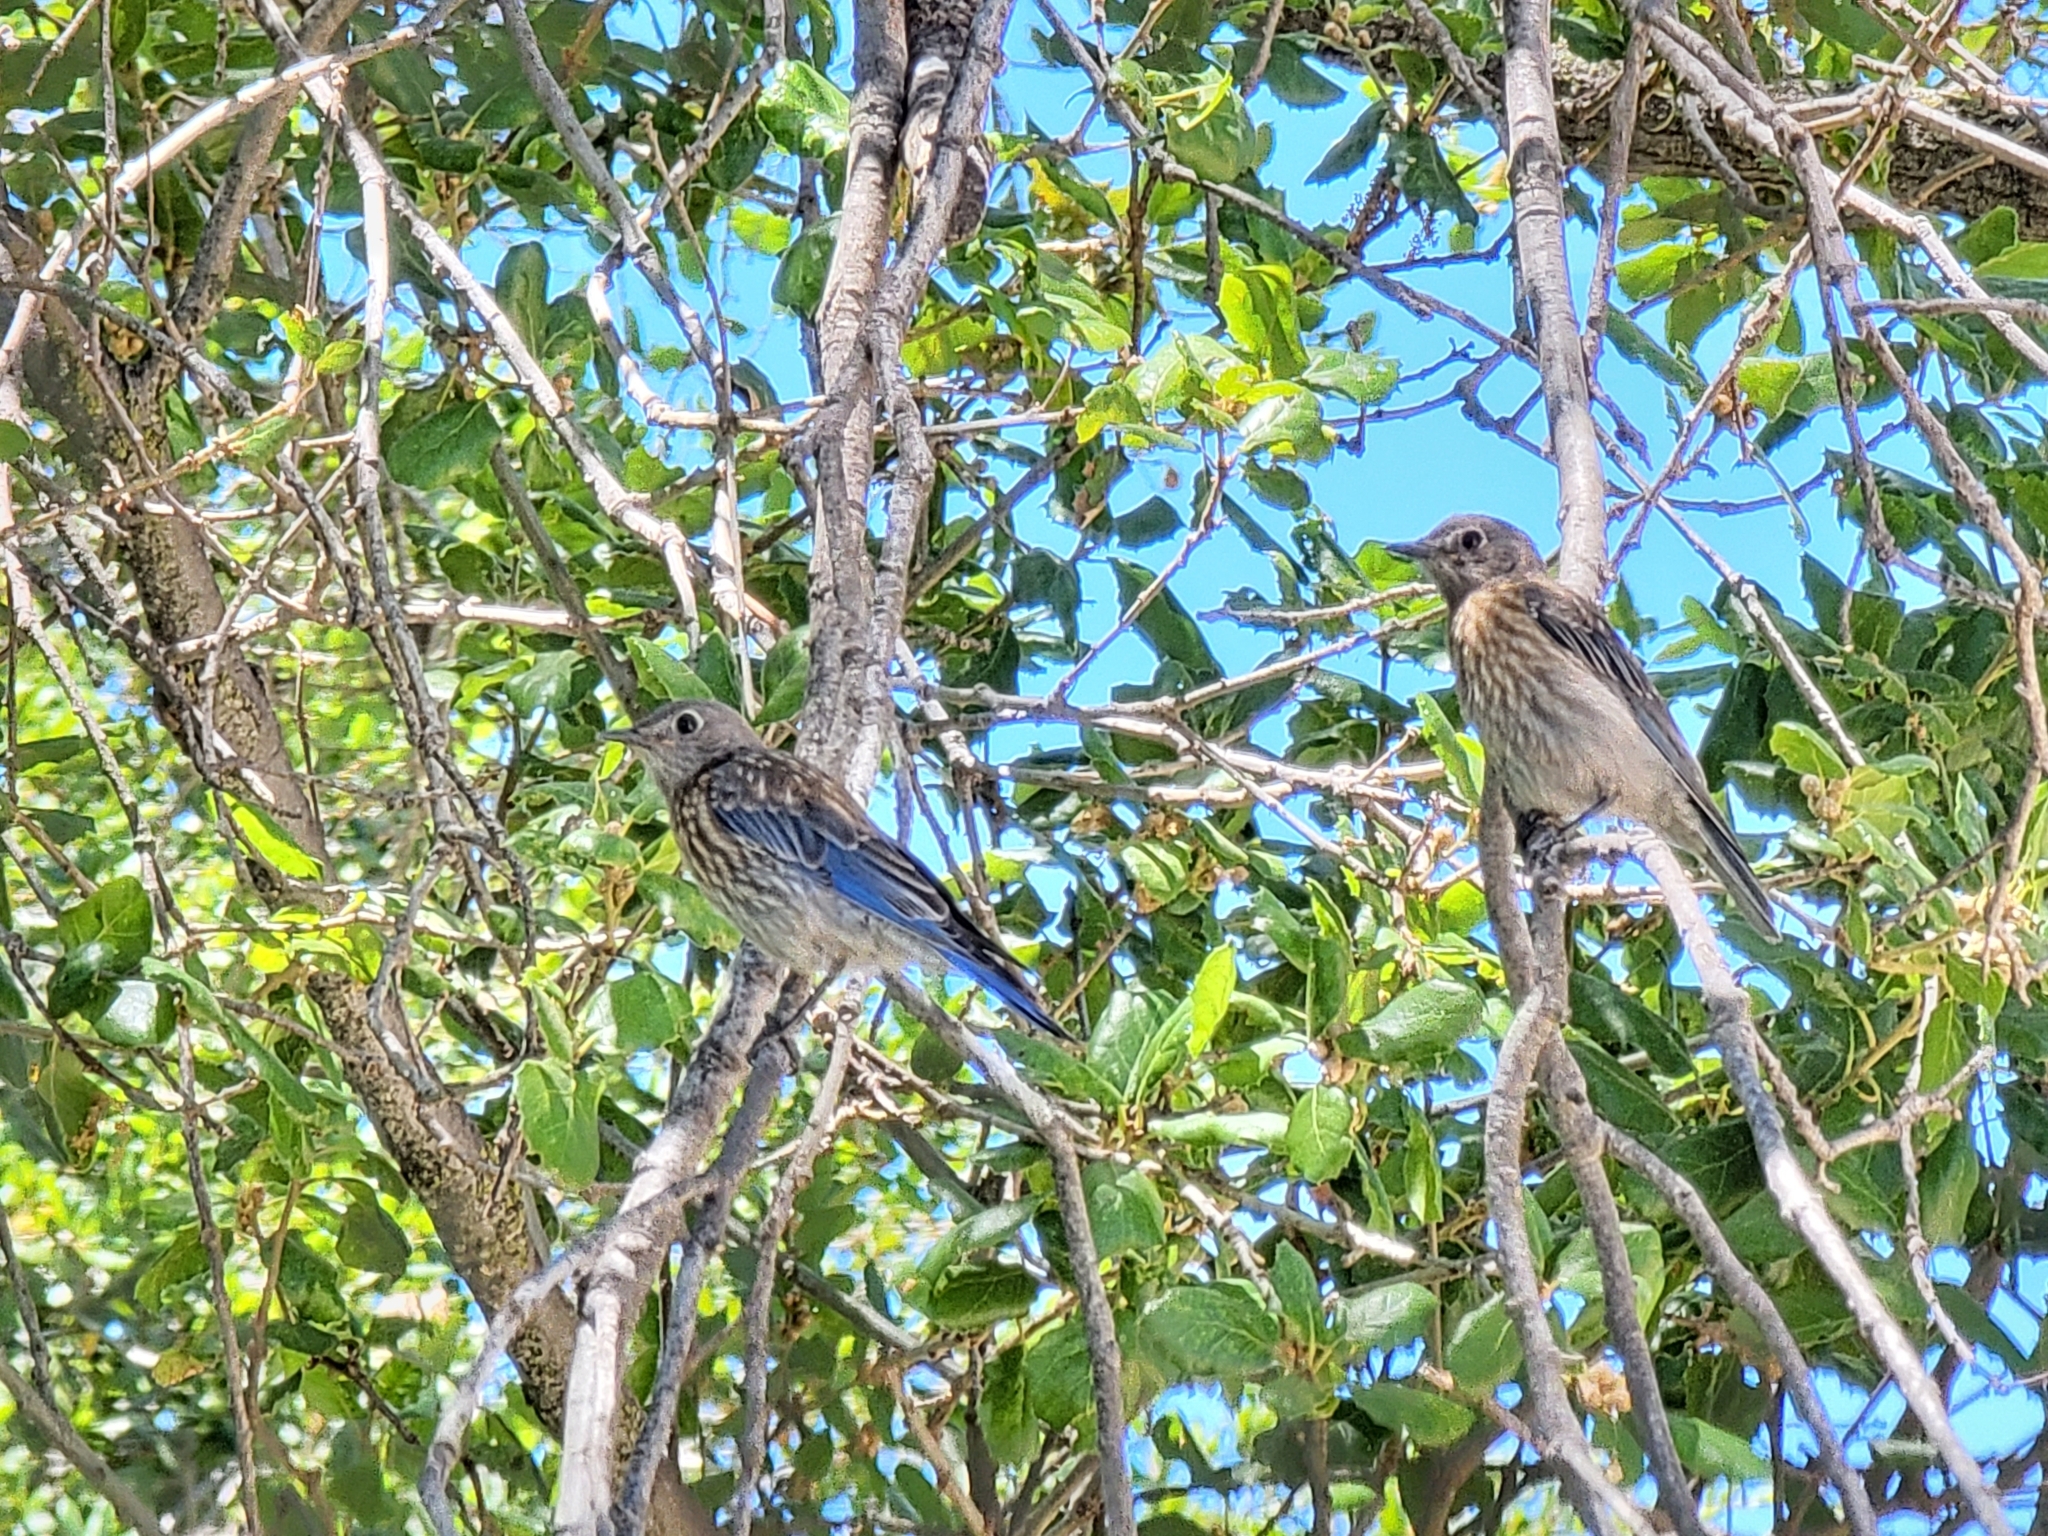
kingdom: Animalia
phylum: Chordata
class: Aves
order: Passeriformes
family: Turdidae
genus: Sialia
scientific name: Sialia mexicana
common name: Western bluebird
